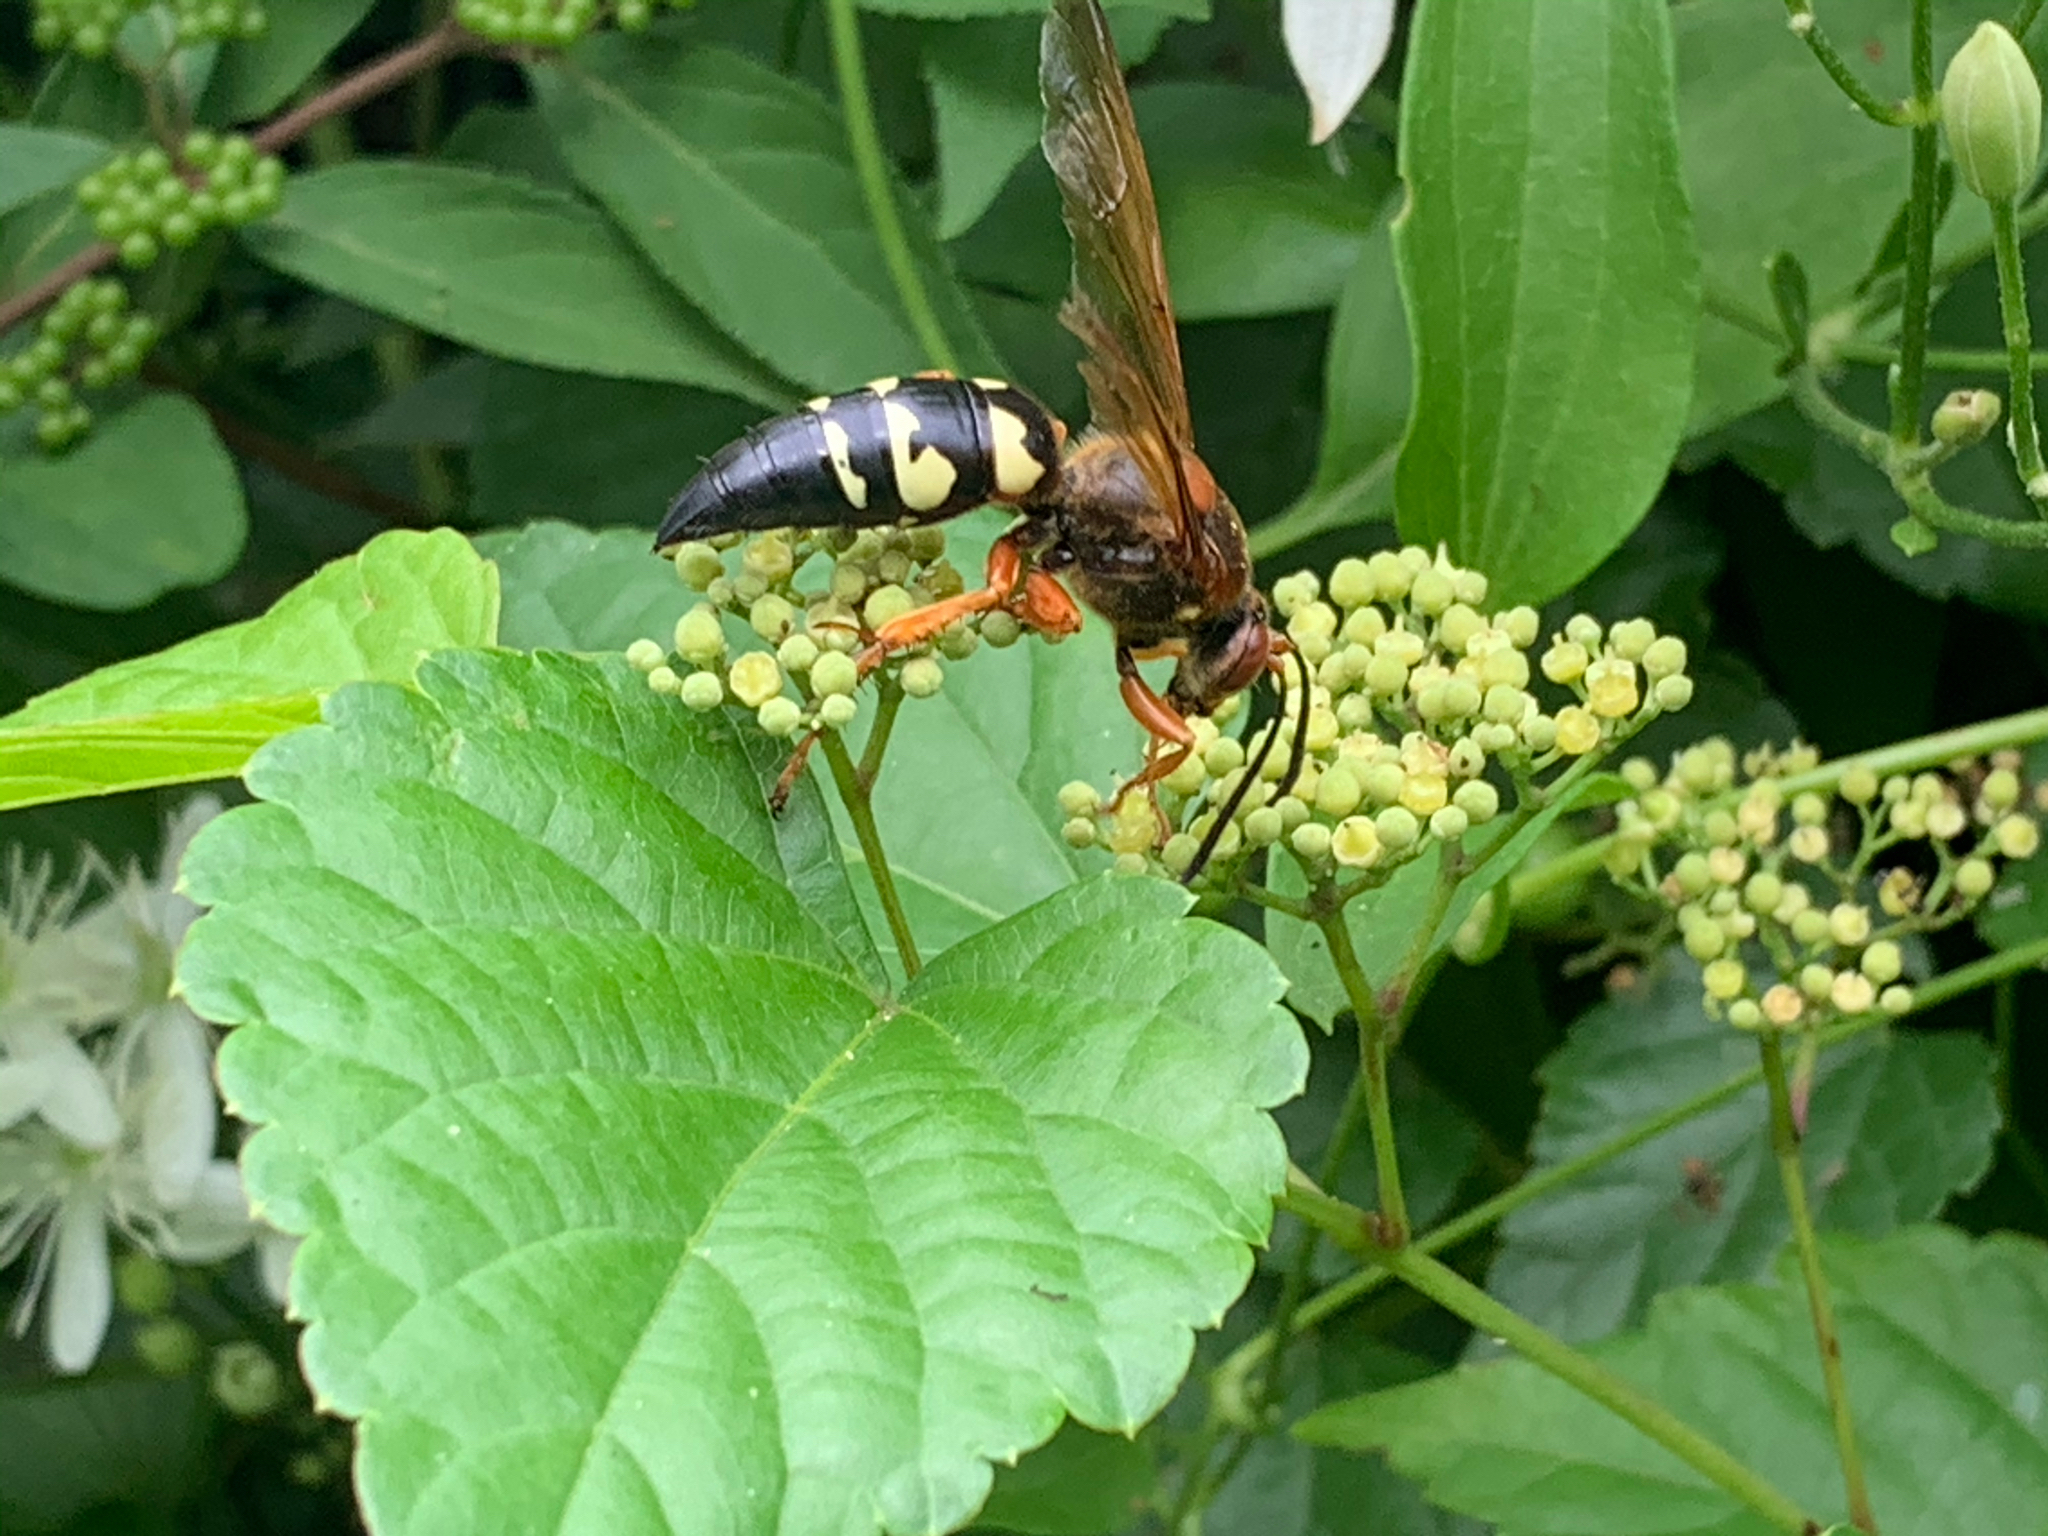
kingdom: Animalia
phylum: Arthropoda
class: Insecta
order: Hymenoptera
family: Crabronidae
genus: Sphecius
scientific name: Sphecius speciosus
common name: Cicada killer
